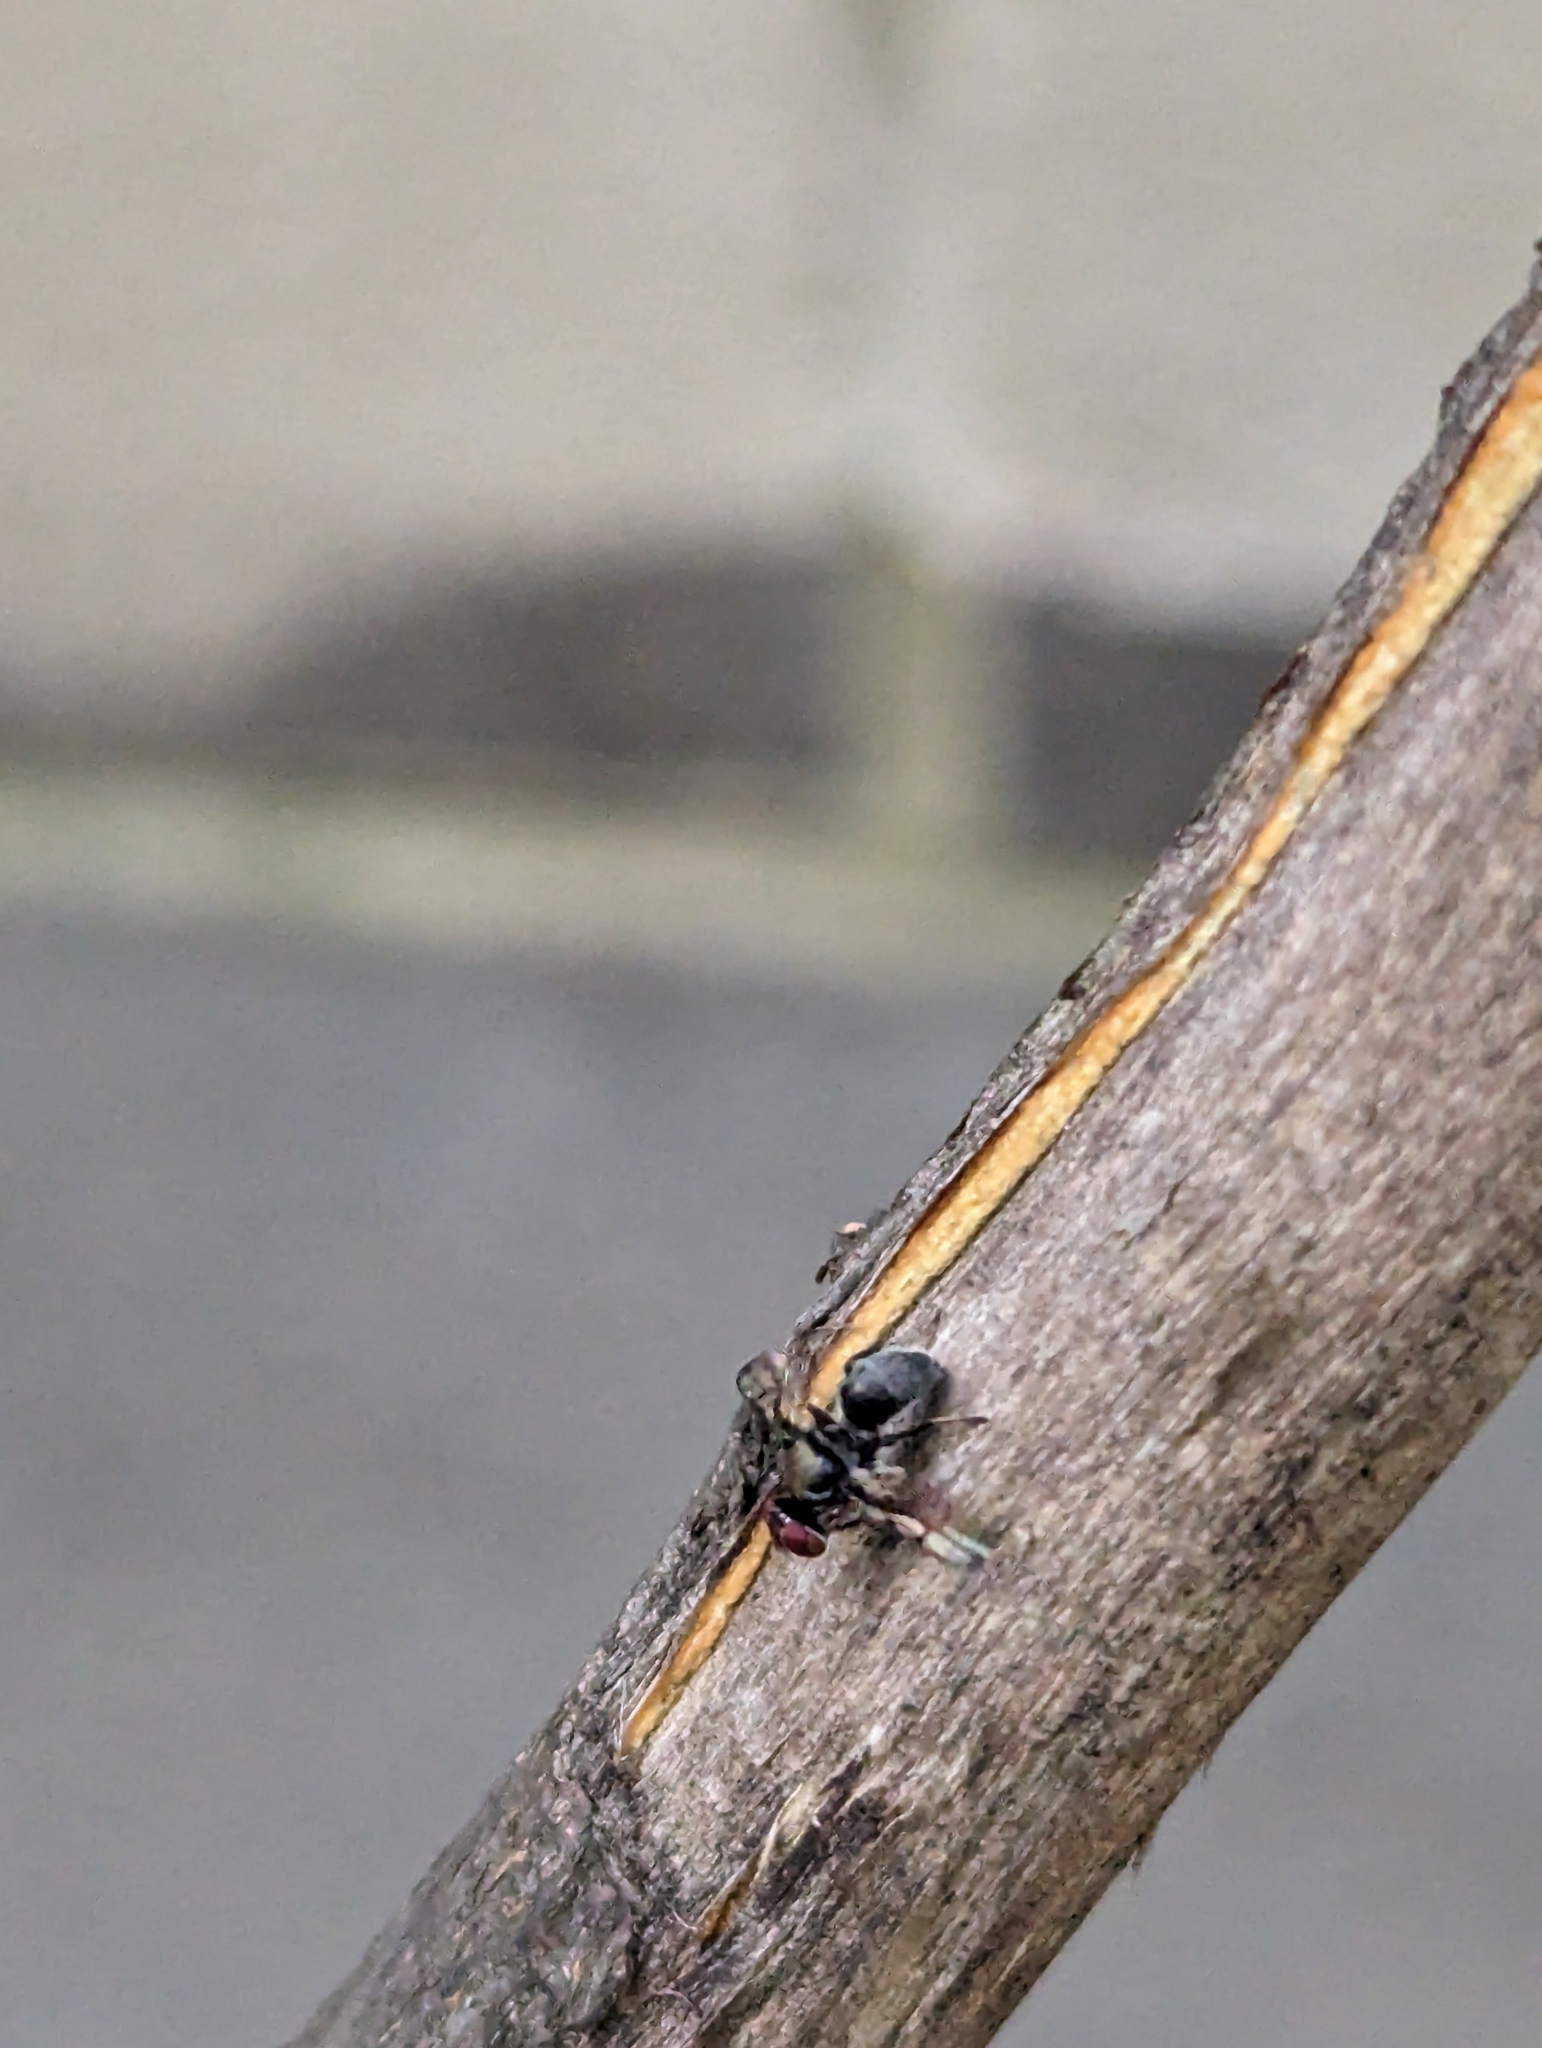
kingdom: Animalia
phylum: Arthropoda
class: Insecta
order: Diptera
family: Platystomatidae
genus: Pogonortalis
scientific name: Pogonortalis doclea
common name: Boatman fly
